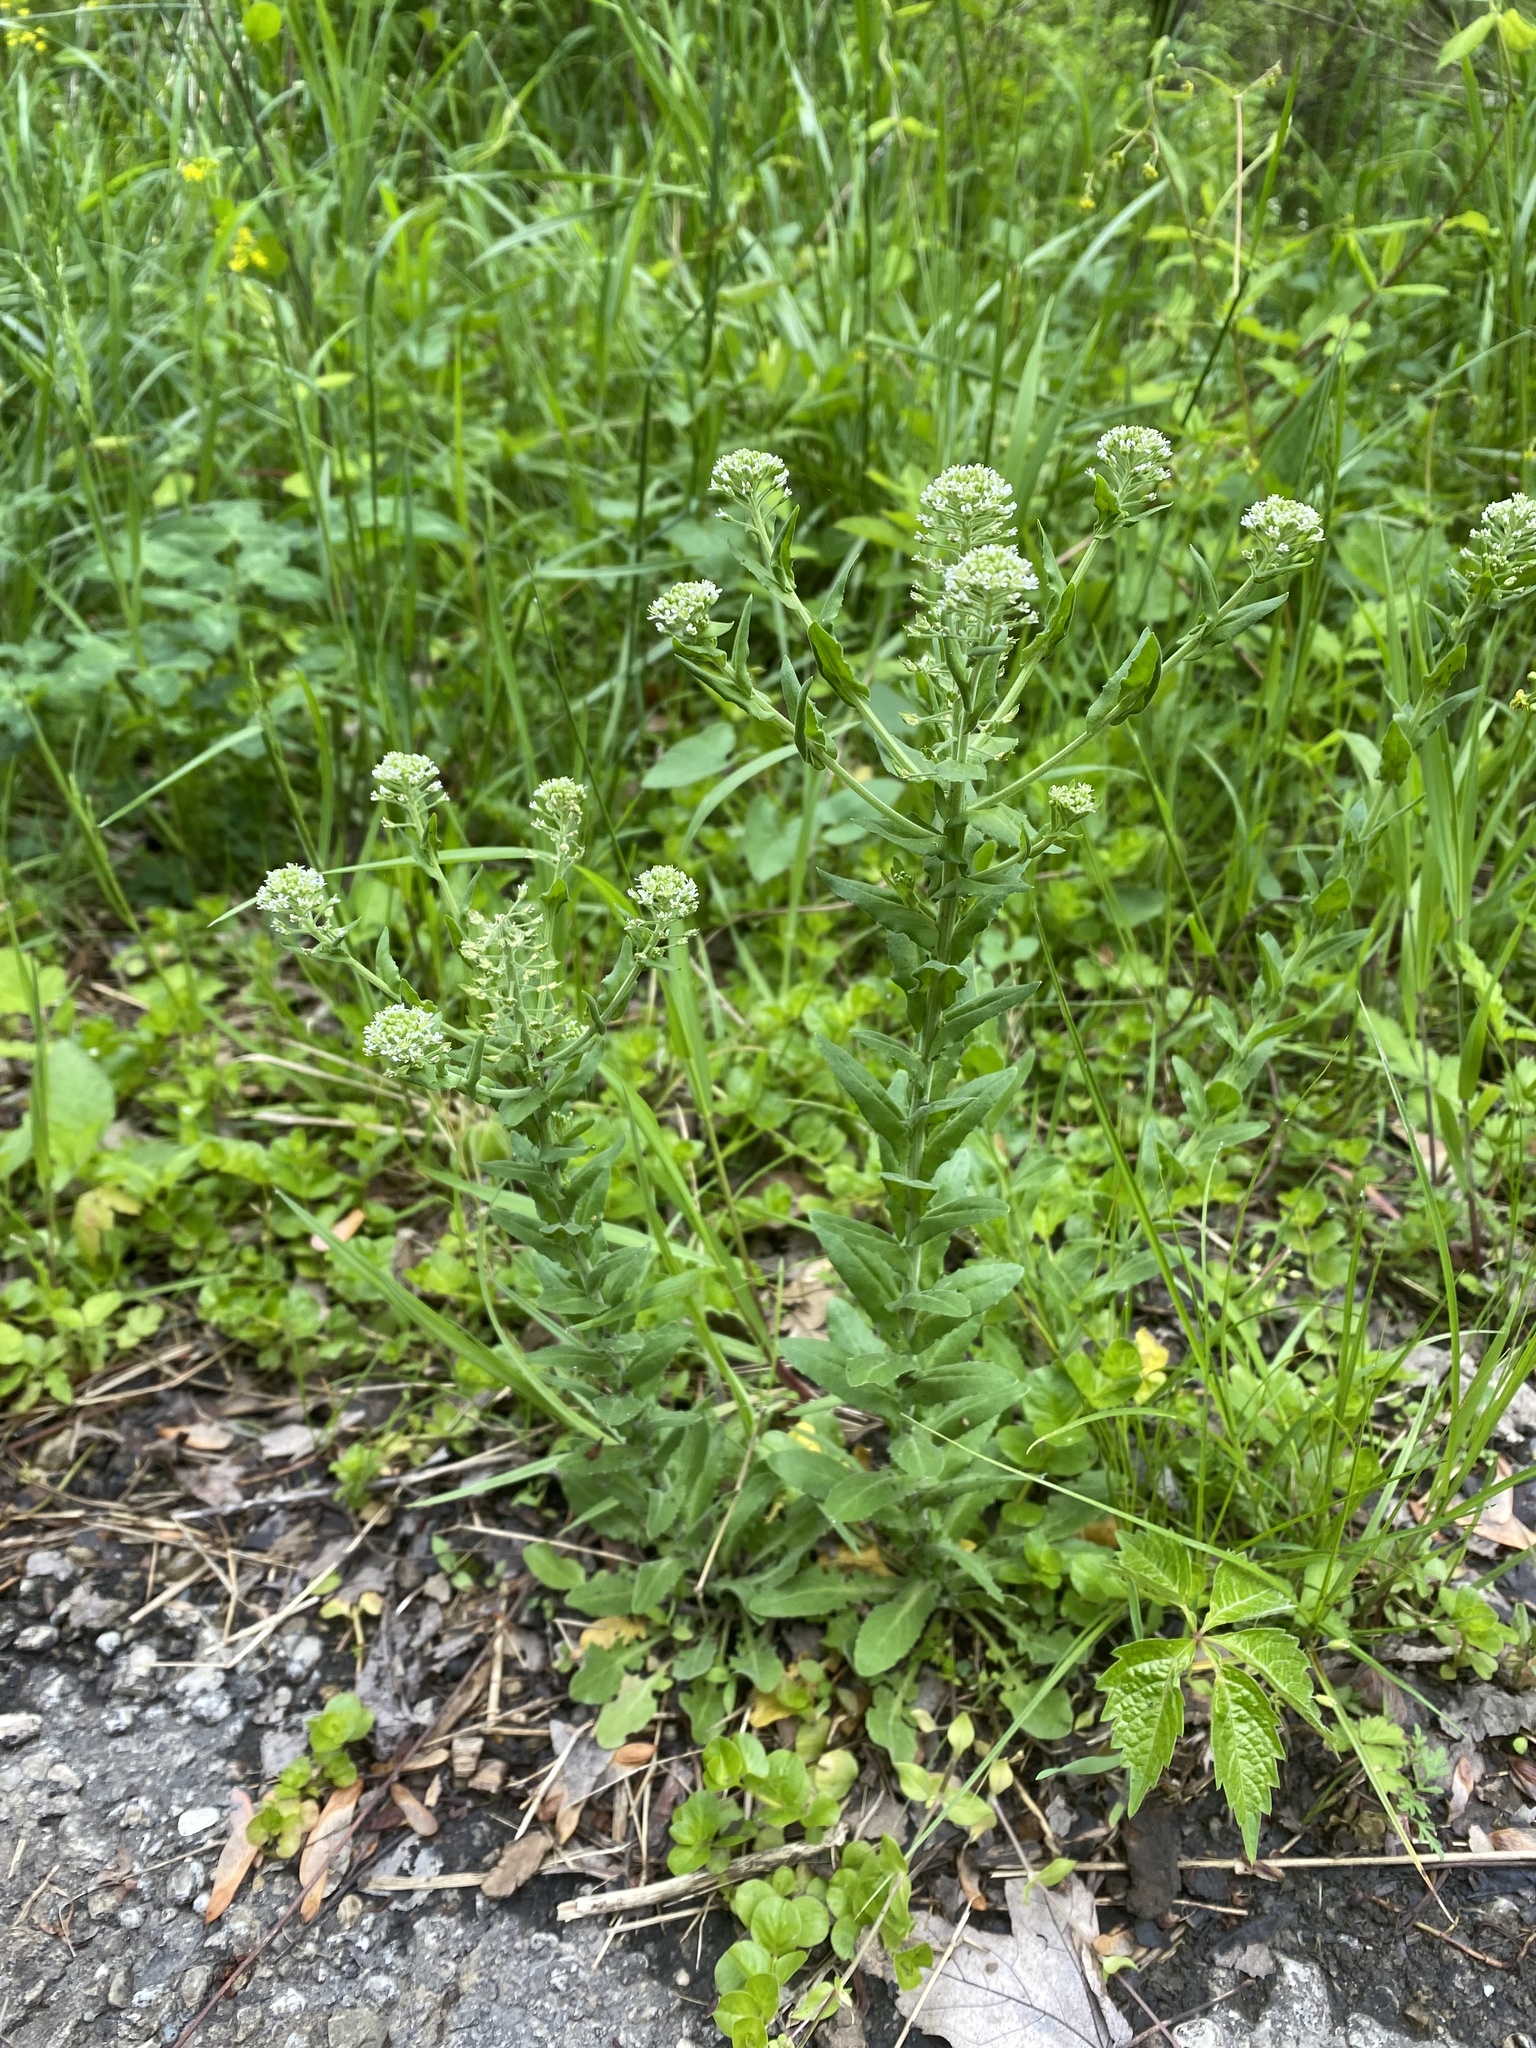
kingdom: Plantae
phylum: Tracheophyta
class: Magnoliopsida
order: Brassicales
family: Brassicaceae
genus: Lepidium
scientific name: Lepidium campestre
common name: Field pepperwort
